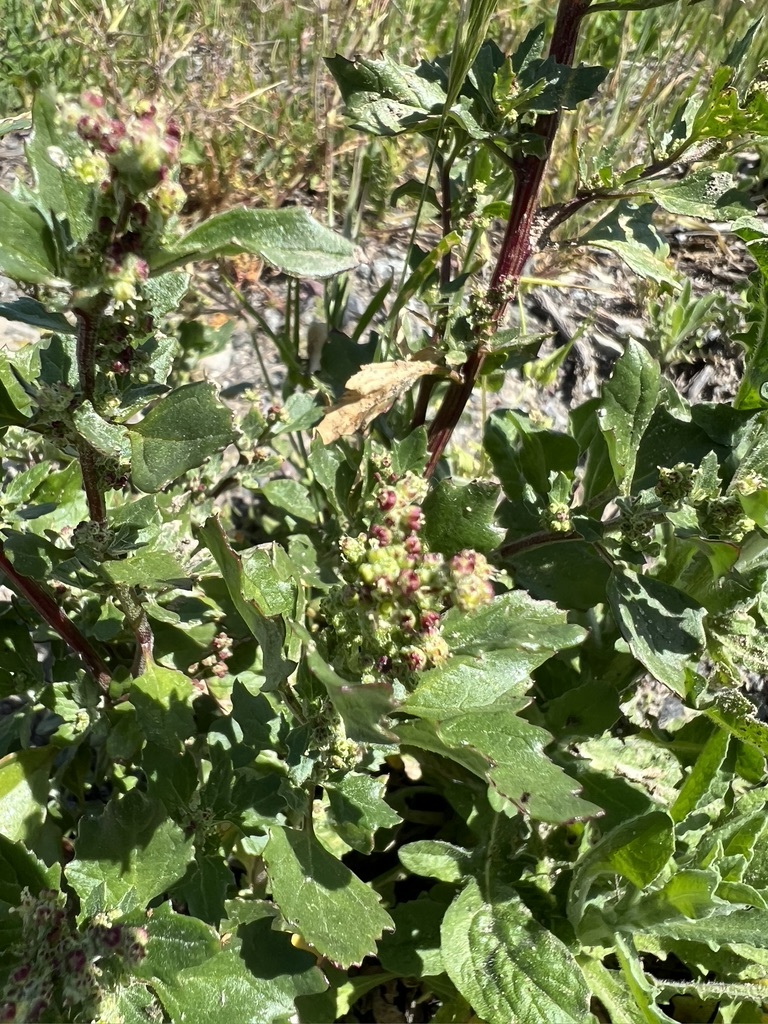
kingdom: Plantae
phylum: Tracheophyta
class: Magnoliopsida
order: Caryophyllales
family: Amaranthaceae
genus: Chenopodiastrum
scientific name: Chenopodiastrum murale
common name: Sowbane
